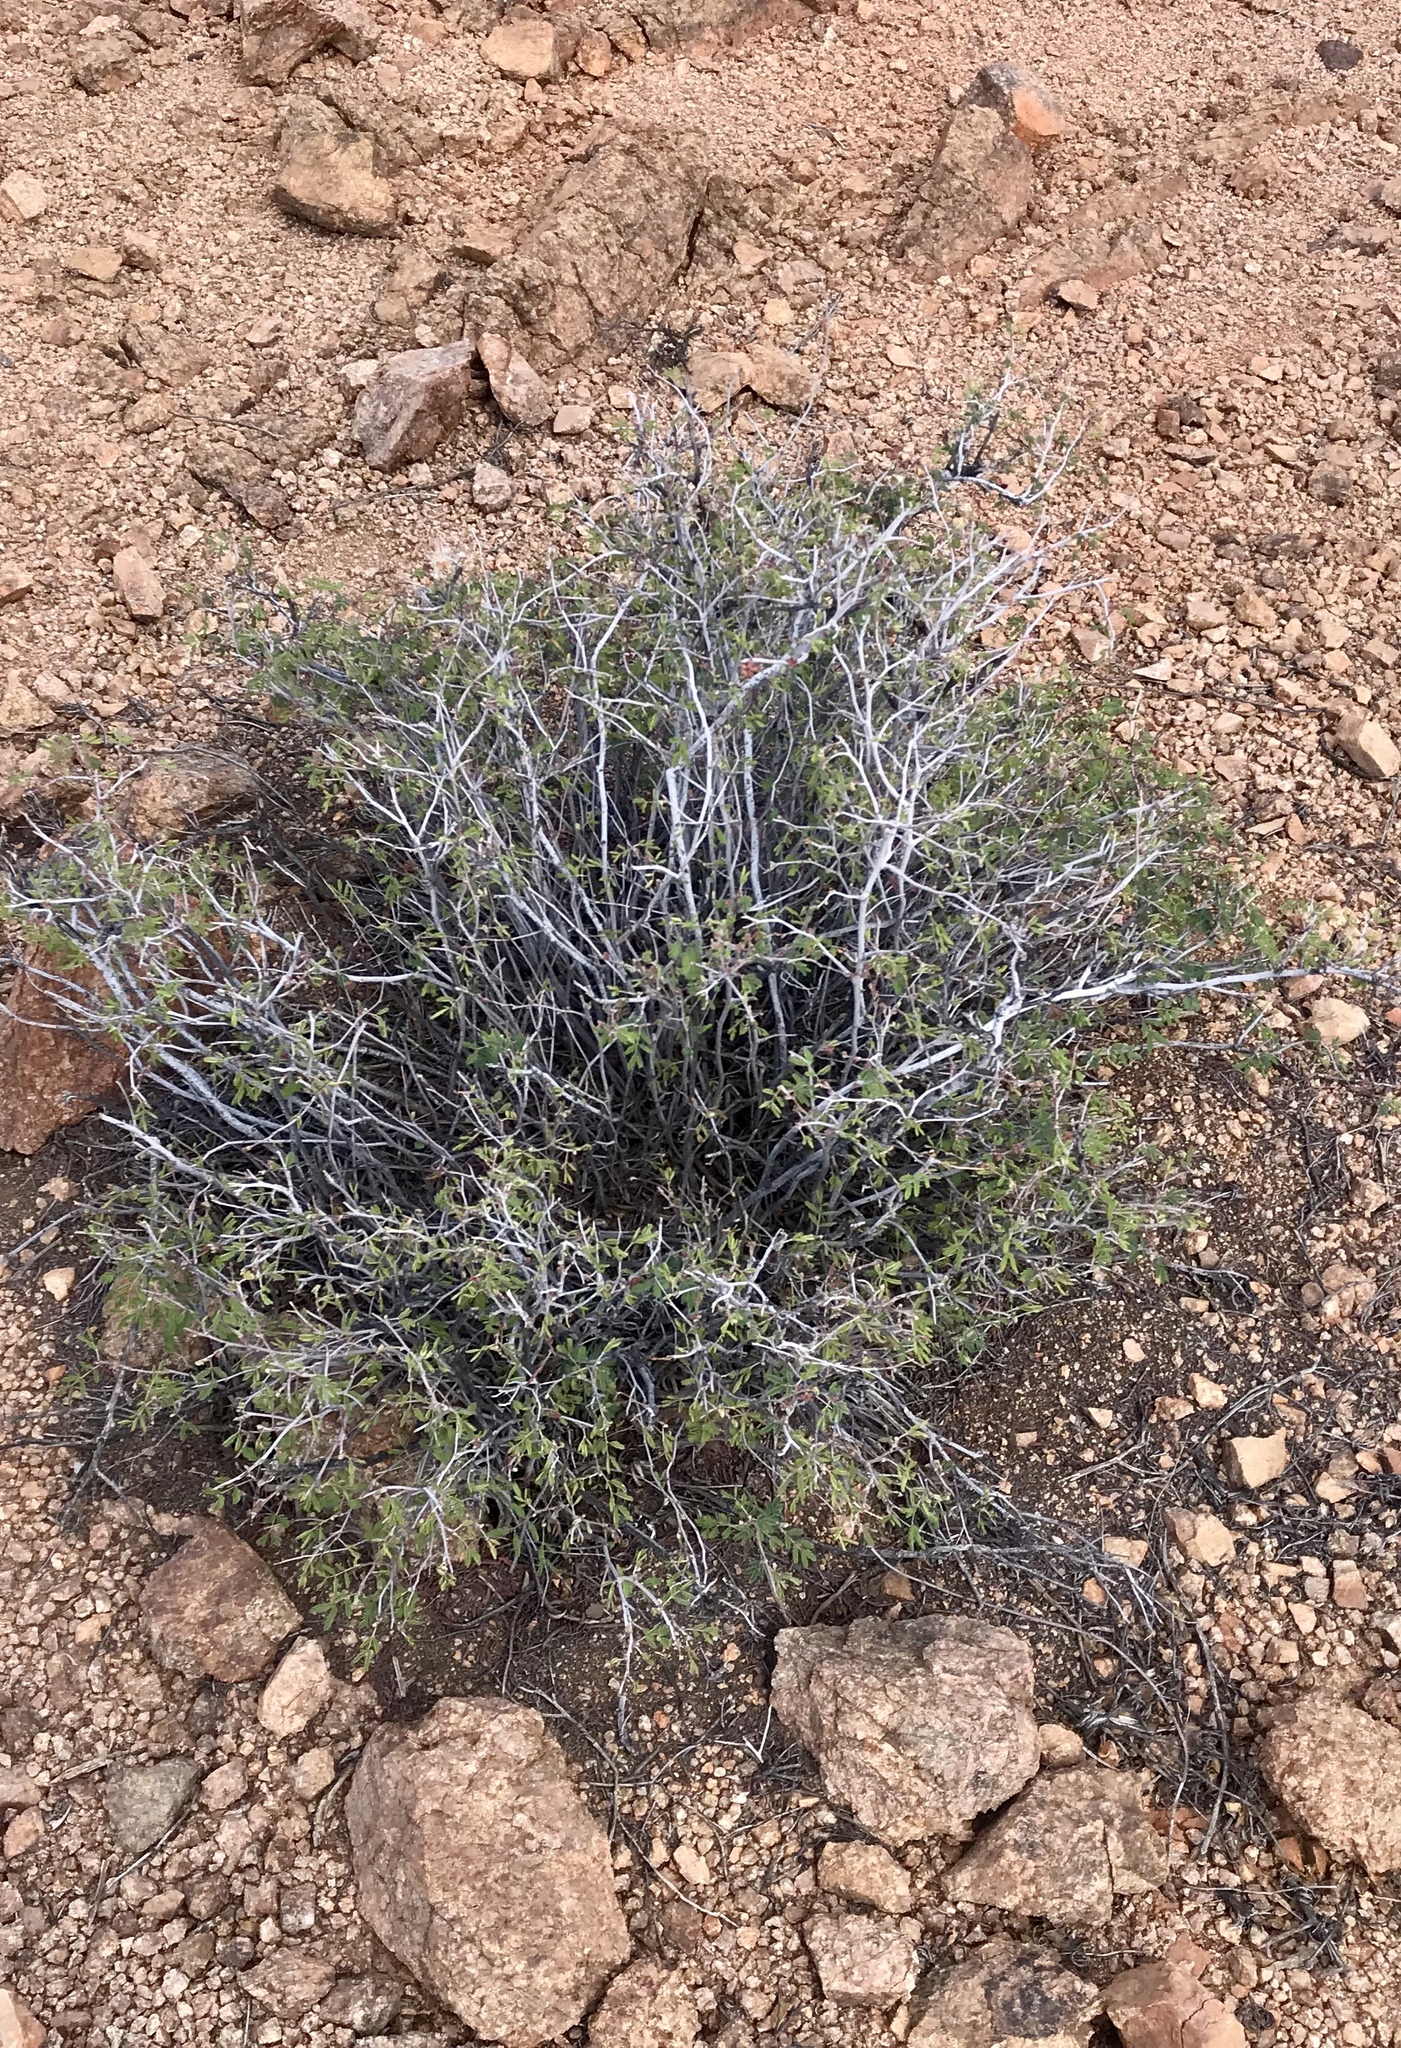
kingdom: Plantae
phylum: Tracheophyta
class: Magnoliopsida
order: Fabales
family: Fabaceae
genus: Calliandra
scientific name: Calliandra eriophylla
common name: Fairy-duster
